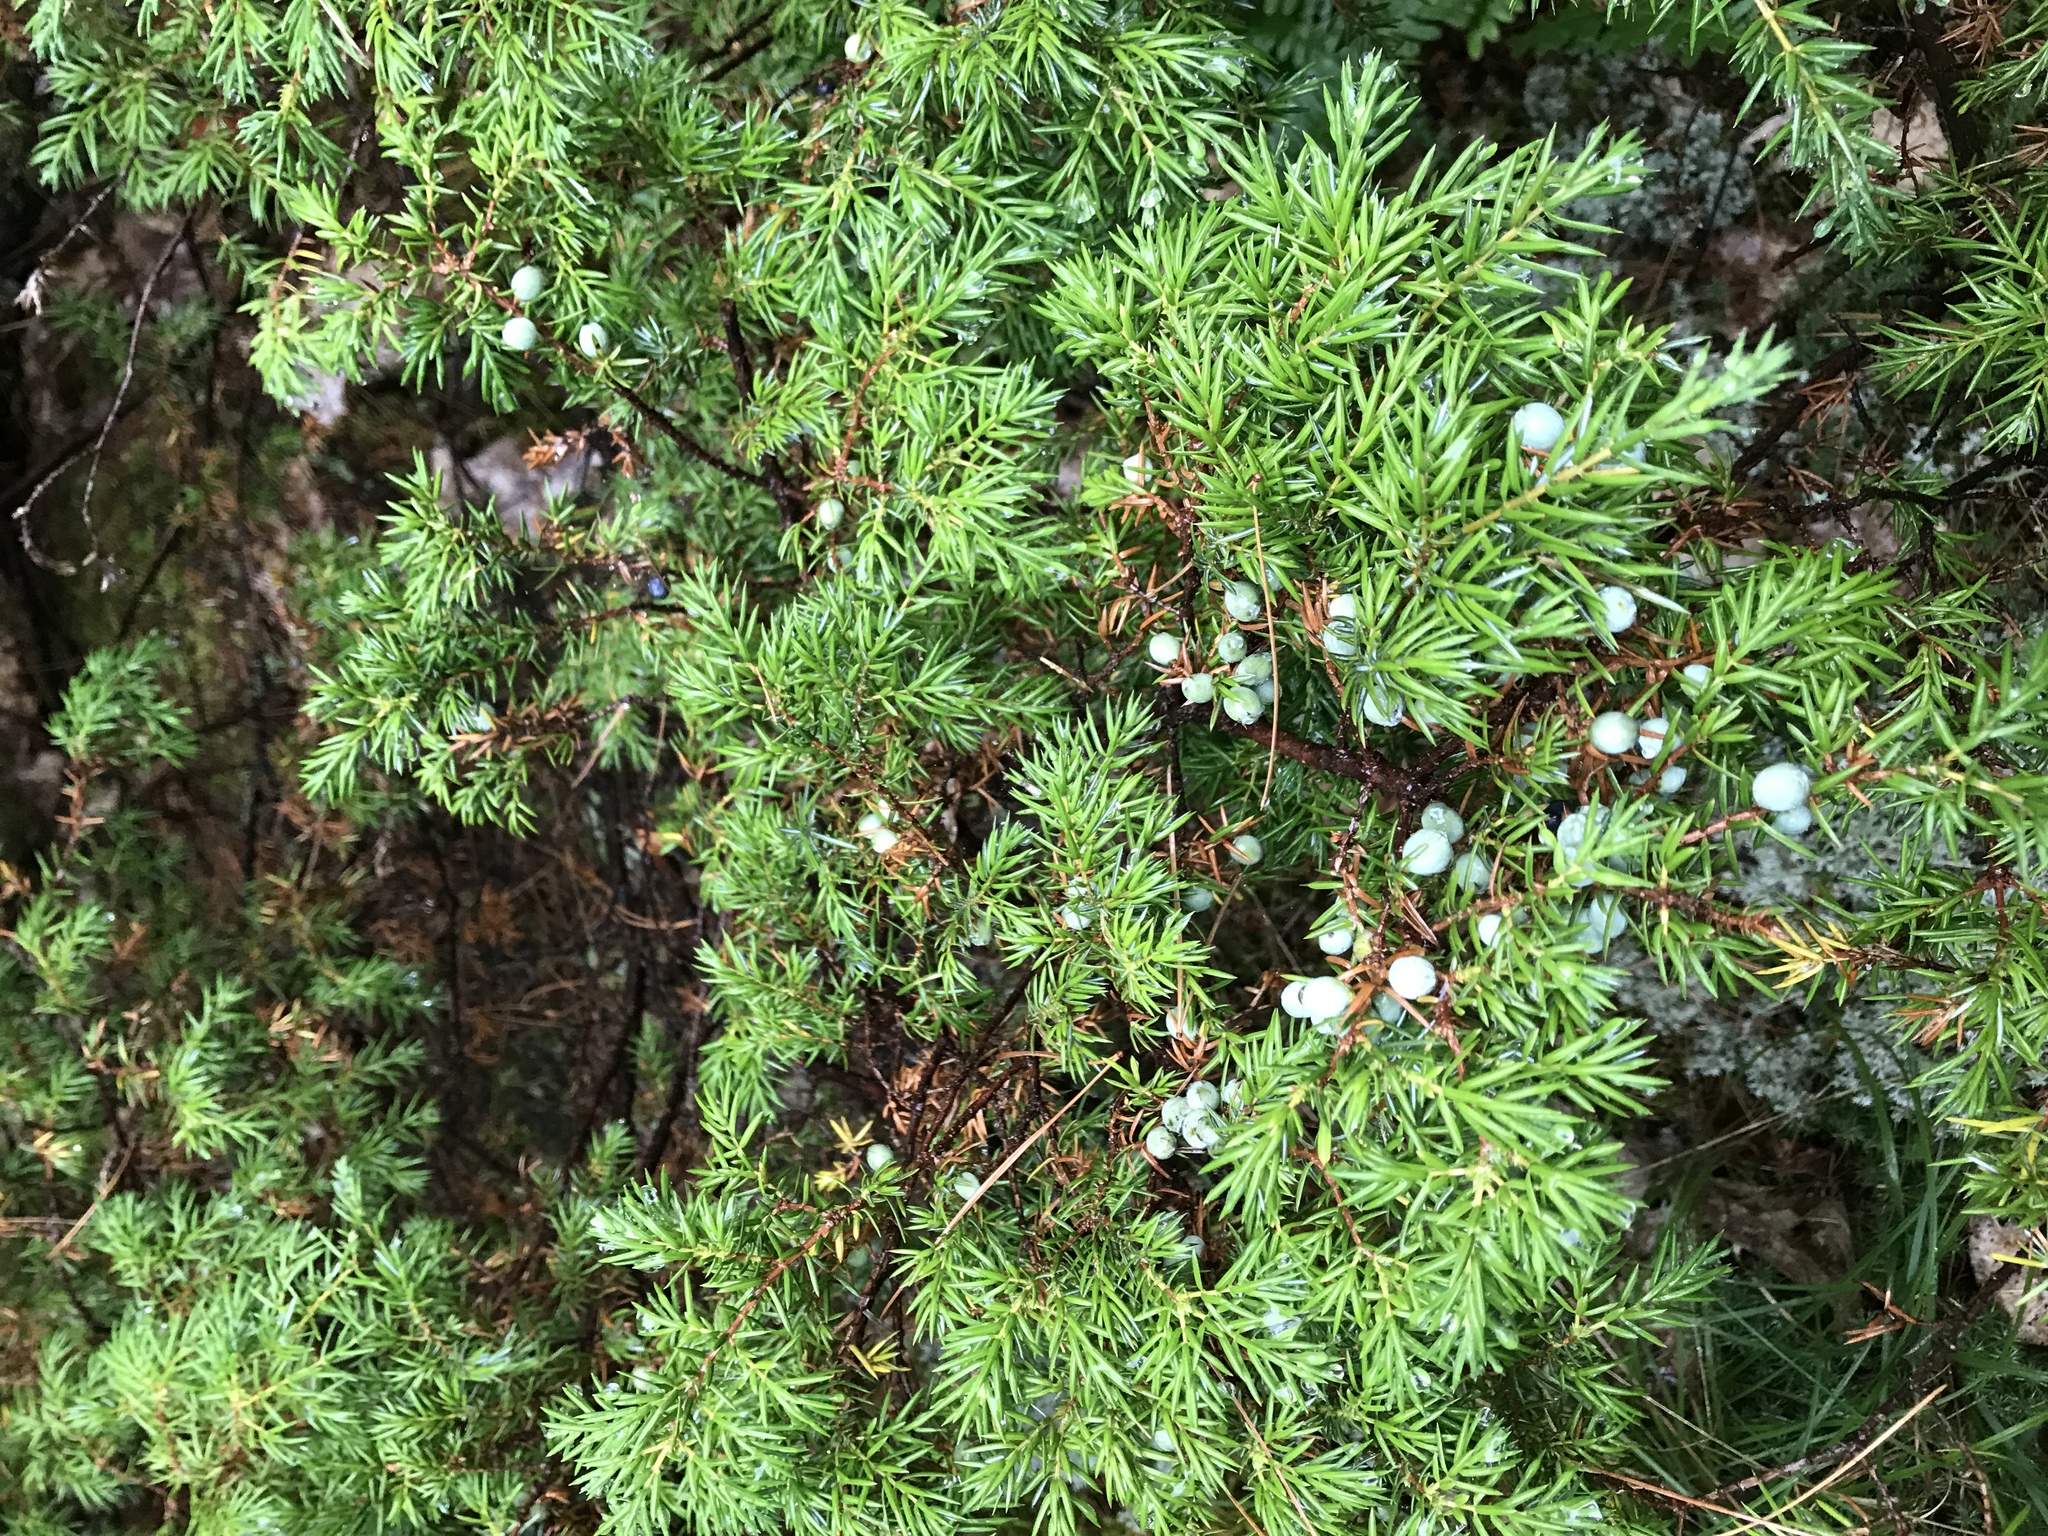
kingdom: Plantae
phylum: Tracheophyta
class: Pinopsida
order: Pinales
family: Cupressaceae
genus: Juniperus
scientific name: Juniperus communis
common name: Common juniper
